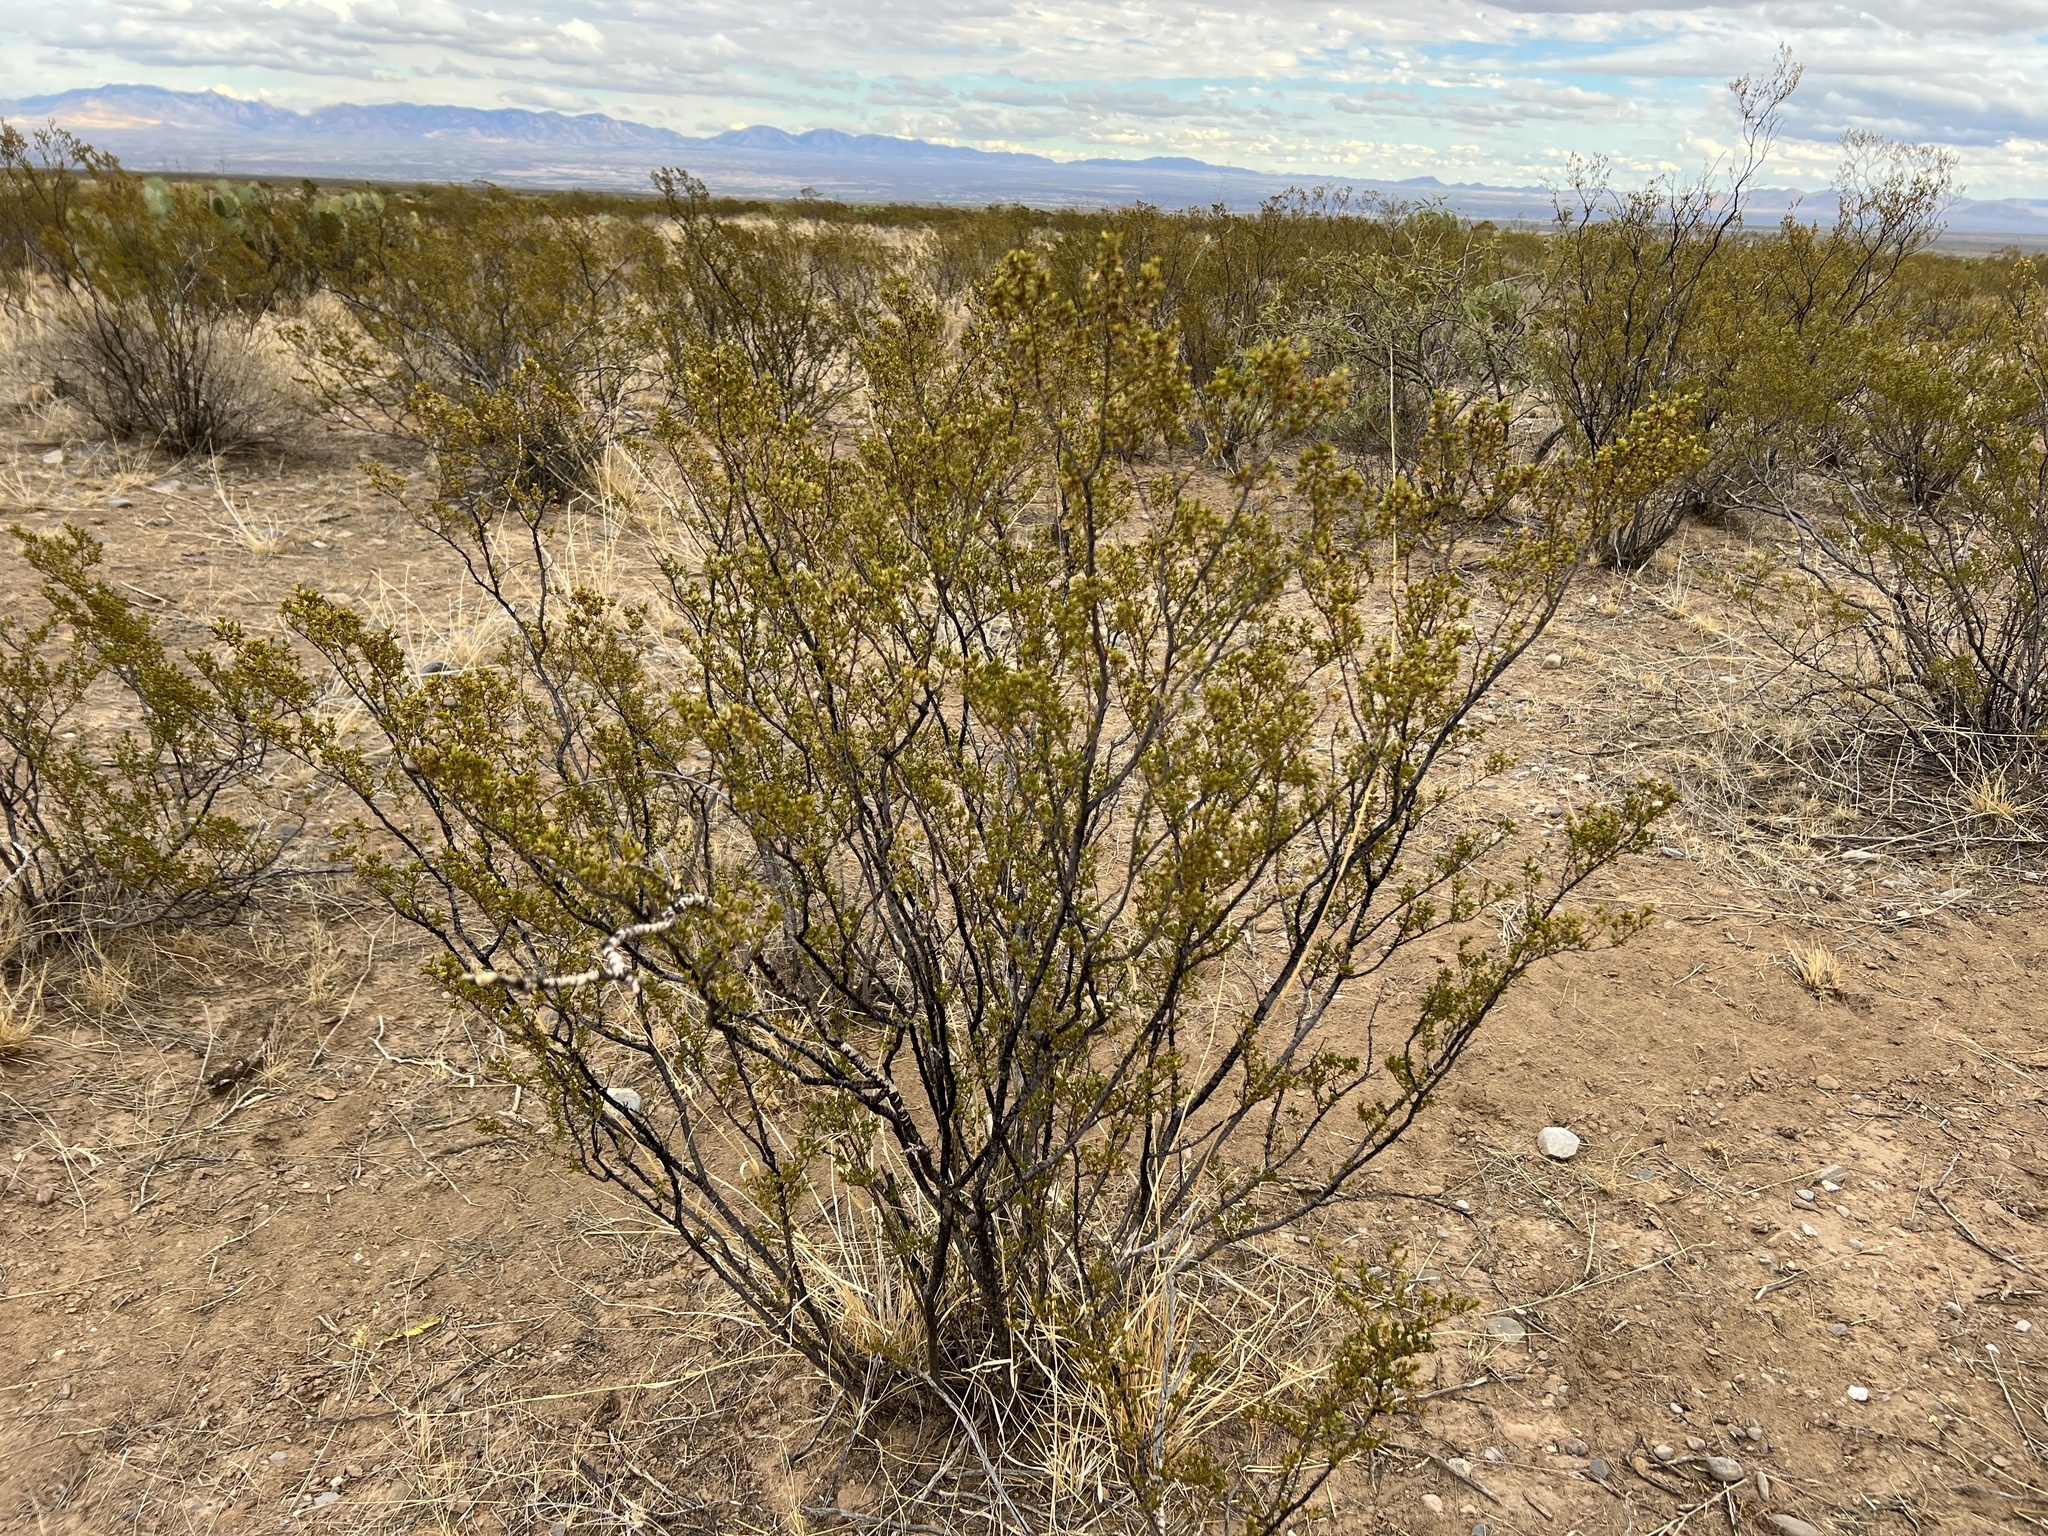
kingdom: Plantae
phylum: Tracheophyta
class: Magnoliopsida
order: Zygophyllales
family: Zygophyllaceae
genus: Larrea
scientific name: Larrea tridentata
